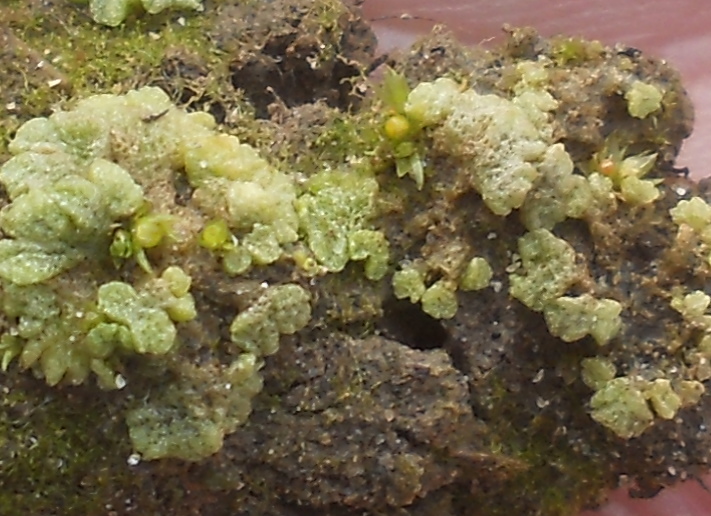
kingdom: Plantae
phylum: Marchantiophyta
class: Marchantiopsida
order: Marchantiales
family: Ricciaceae
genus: Riccia
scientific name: Riccia cavernosa
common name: Cavernous crystalwort
